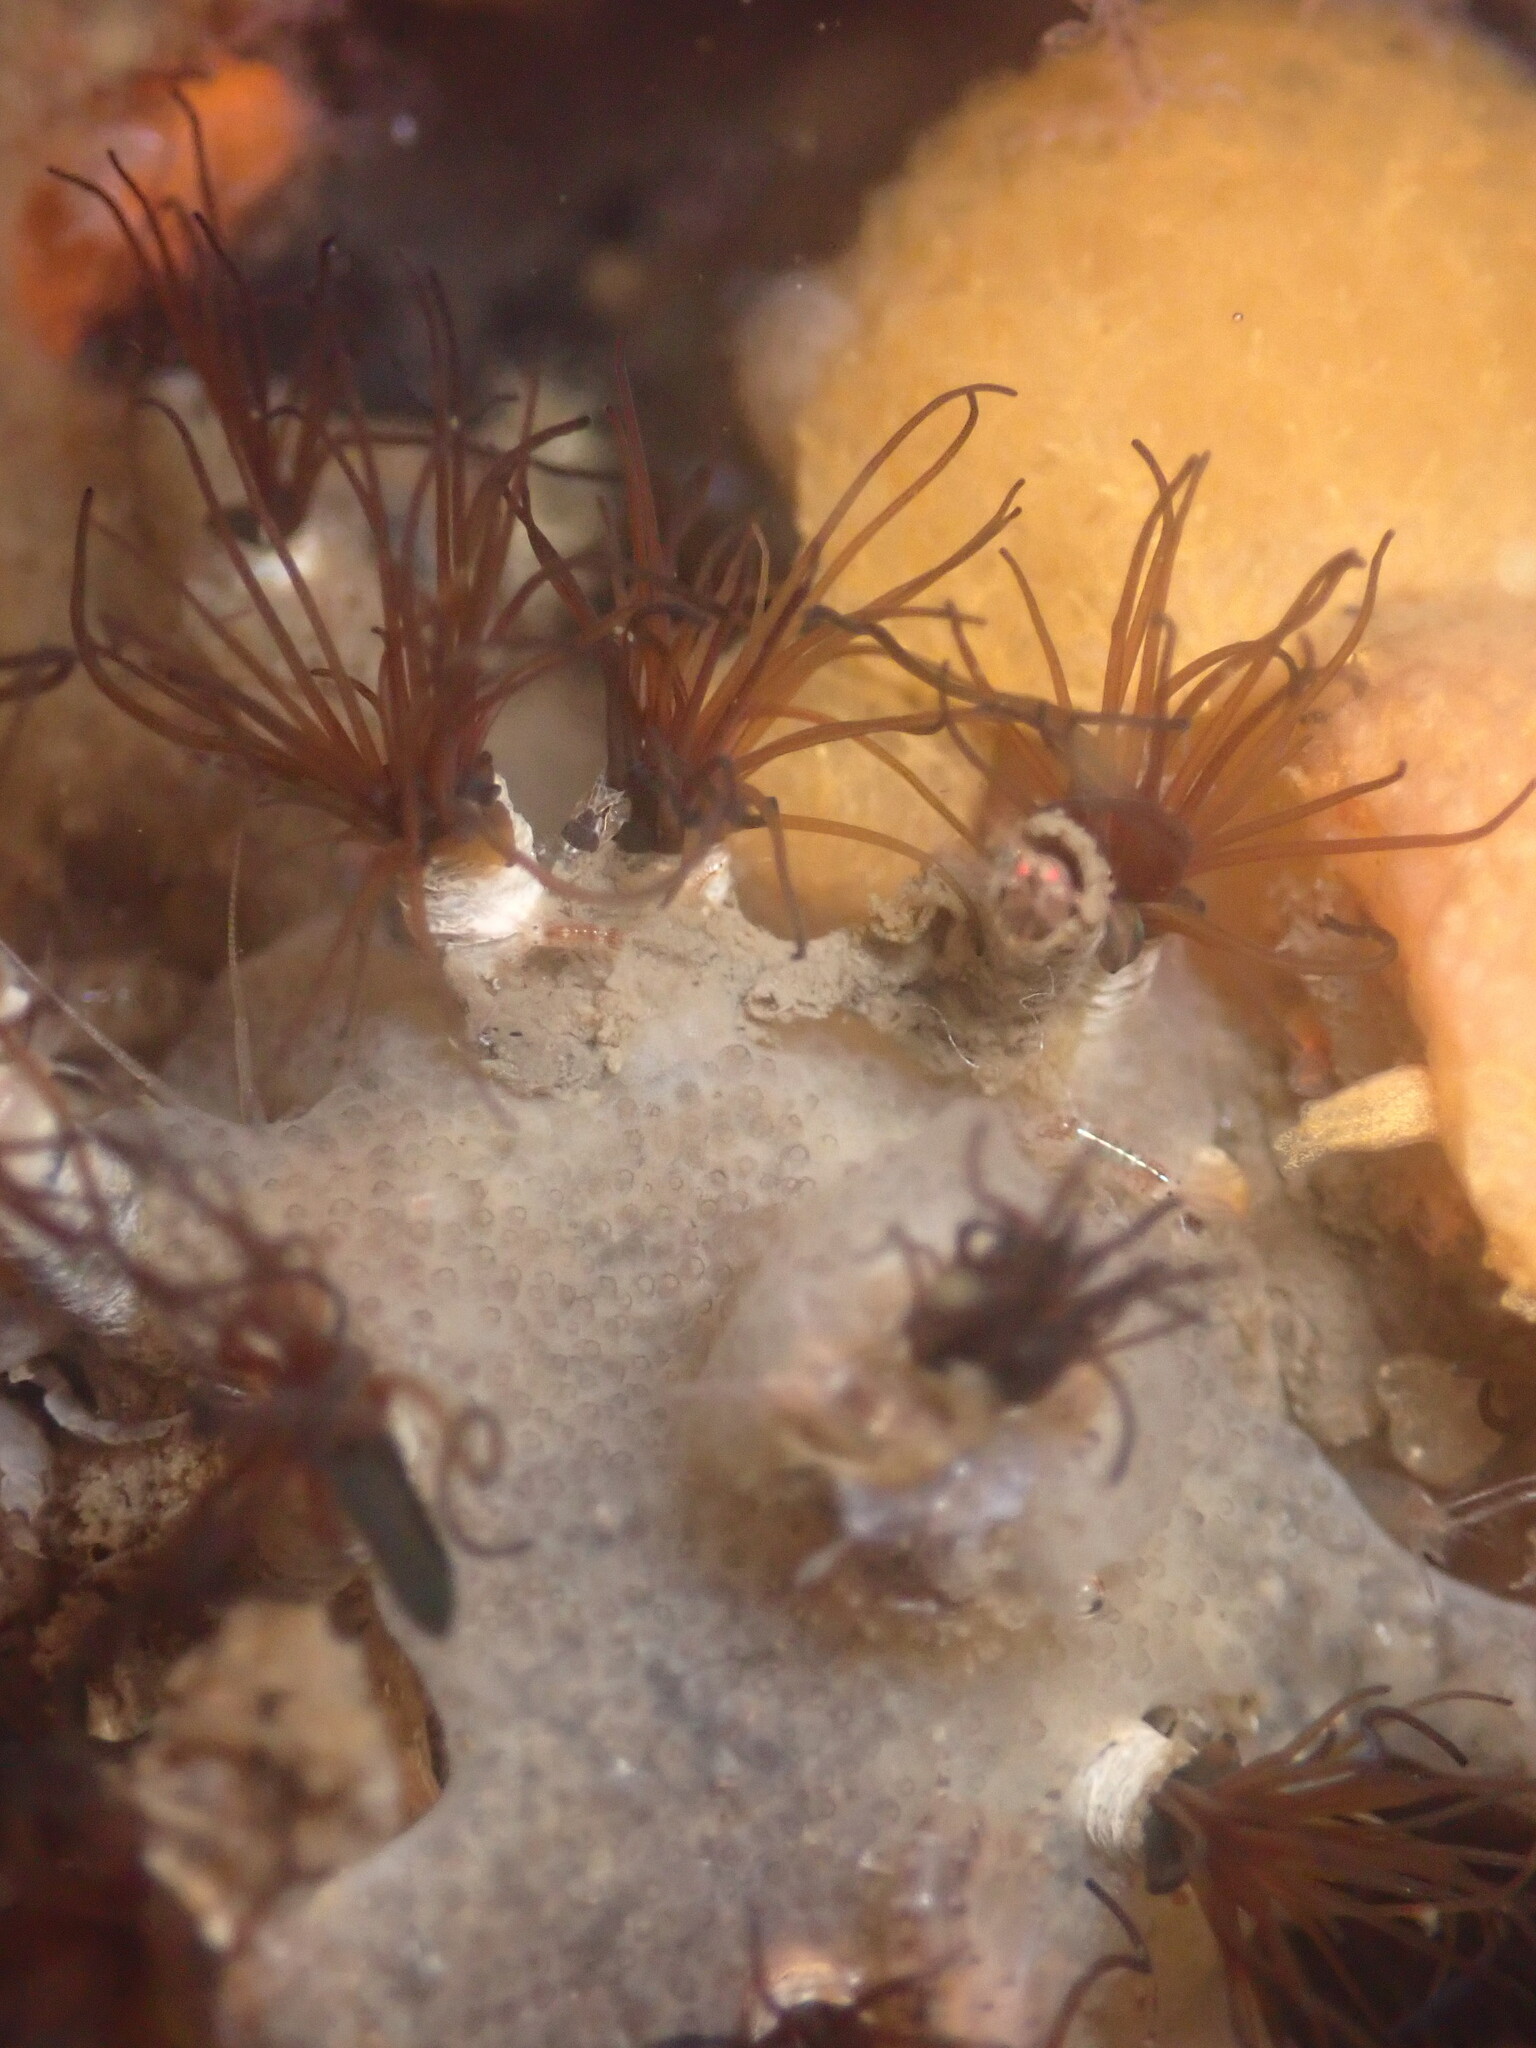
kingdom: Animalia
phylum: Annelida
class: Polychaeta
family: Cirratulidae
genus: Dodecaceria
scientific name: Dodecaceria pacifica
